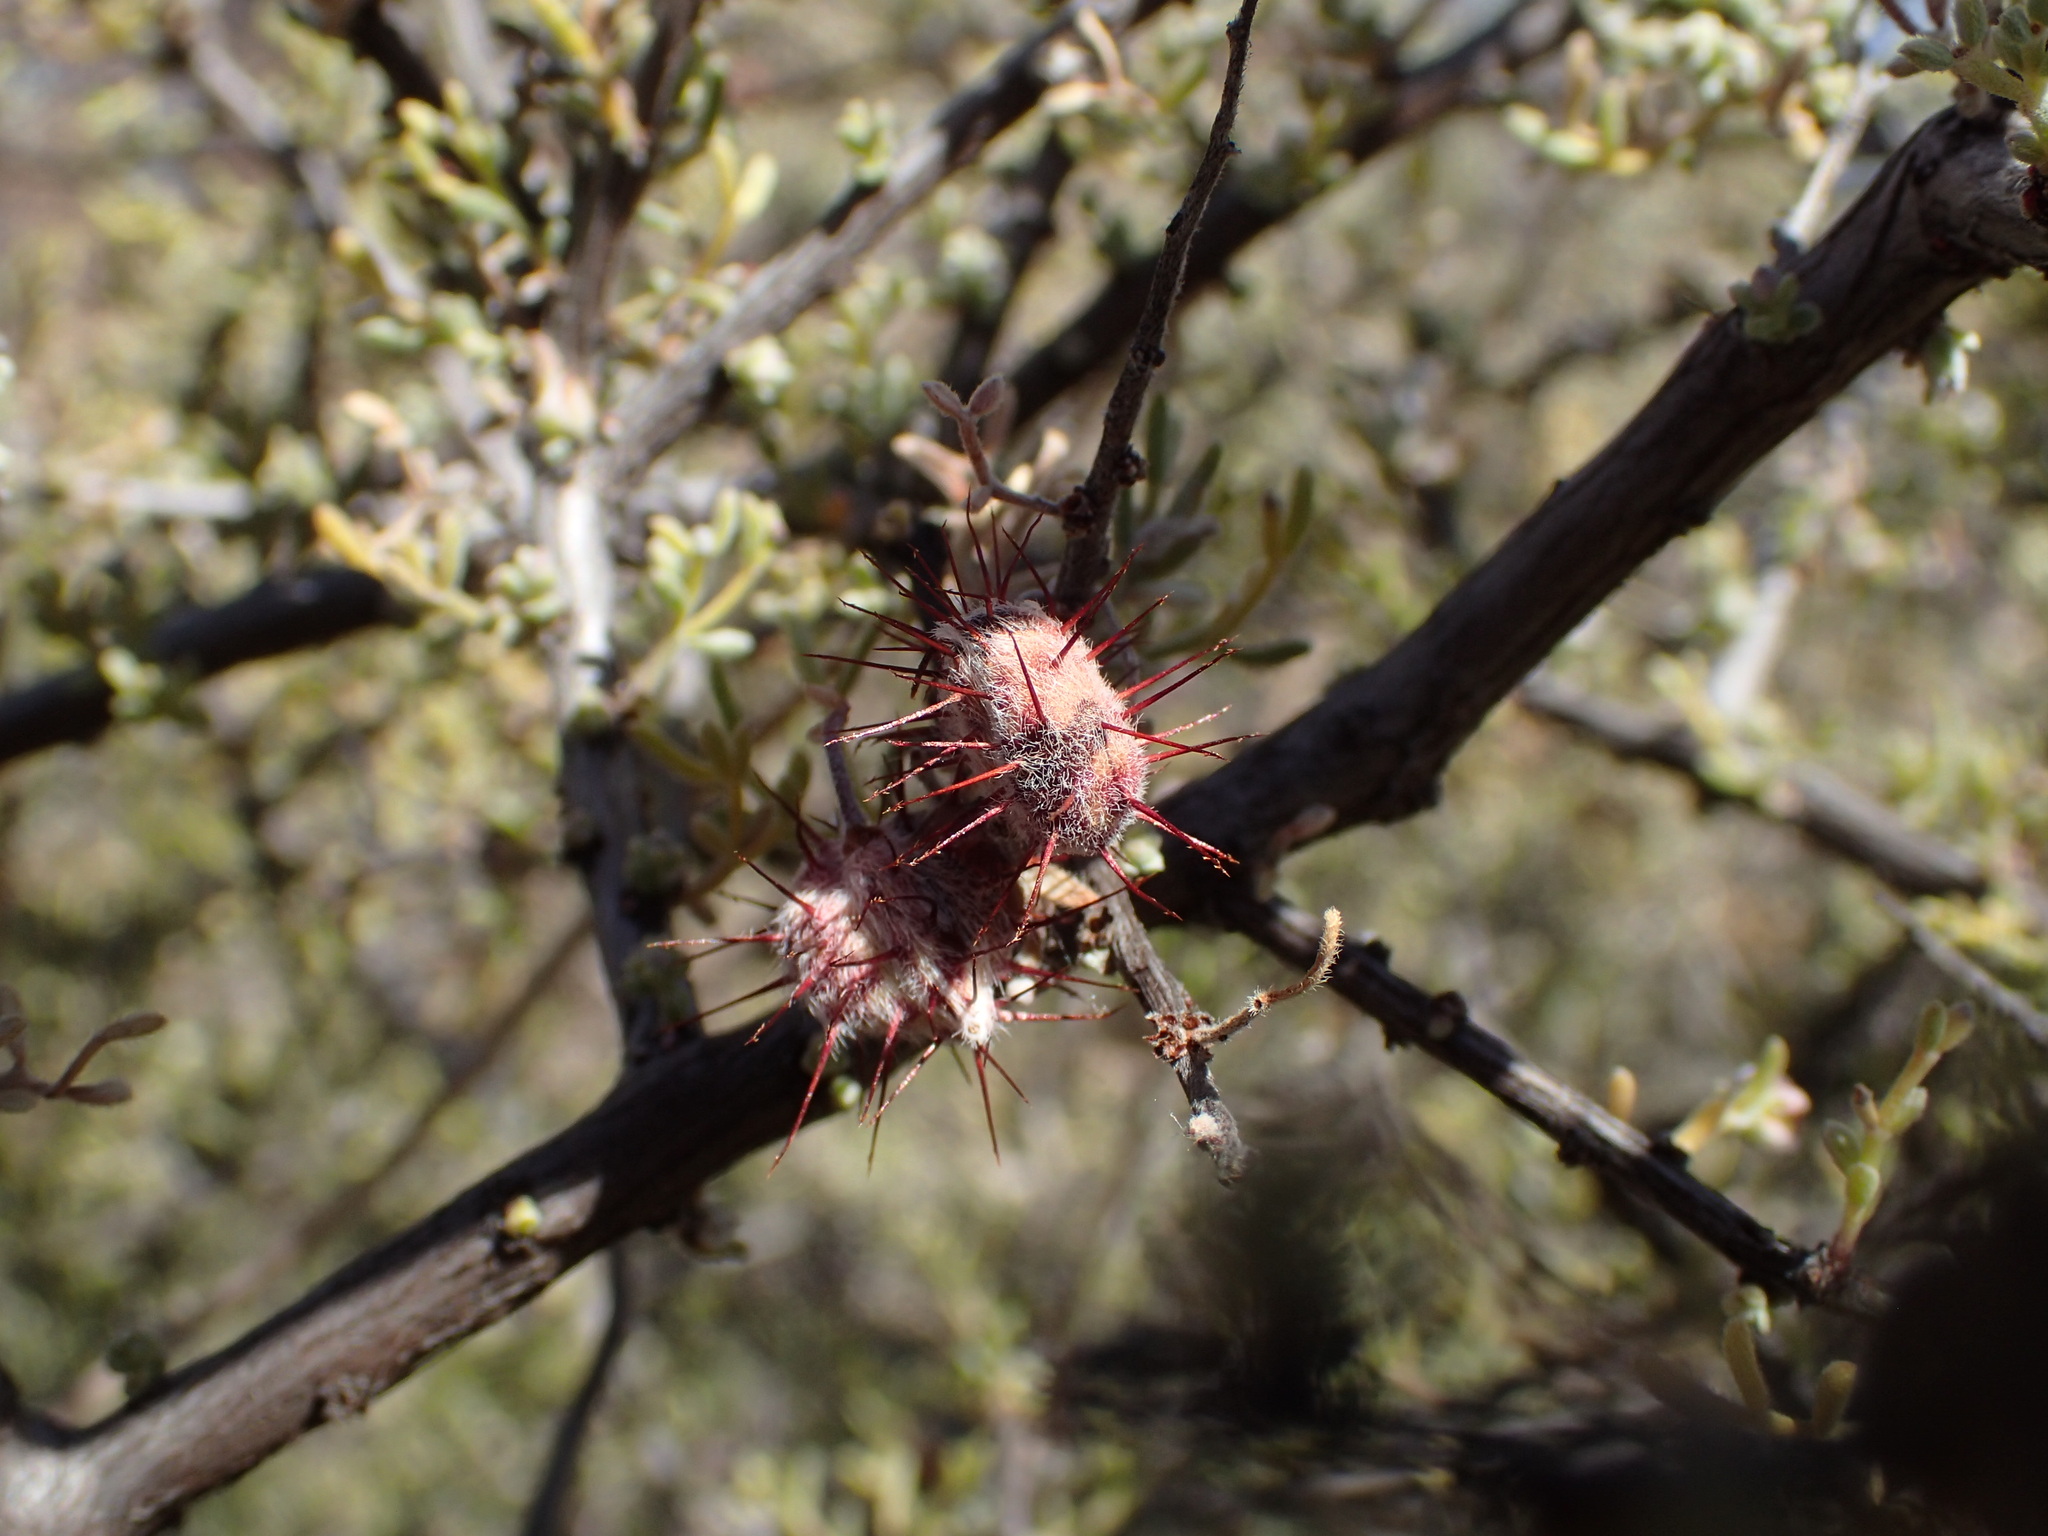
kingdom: Plantae
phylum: Tracheophyta
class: Magnoliopsida
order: Zygophyllales
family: Krameriaceae
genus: Krameria
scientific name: Krameria erecta
